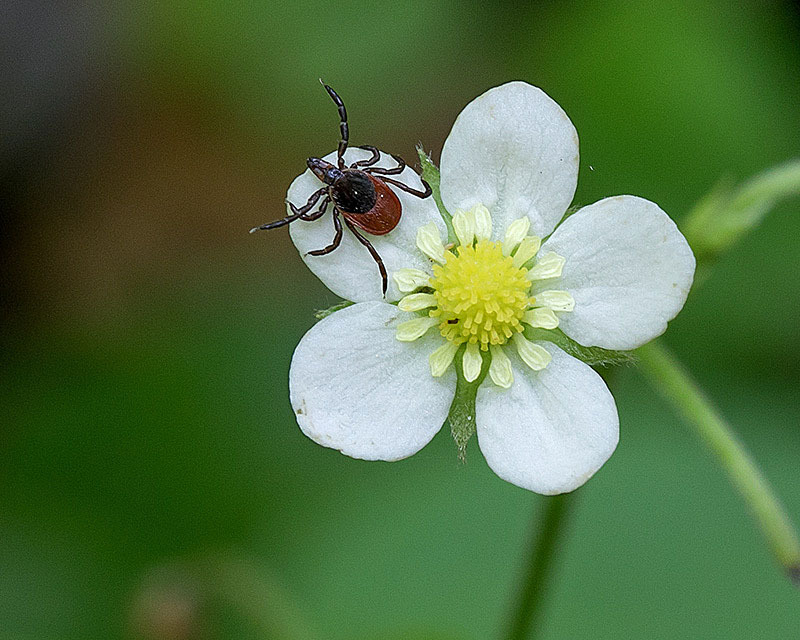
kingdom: Animalia
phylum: Arthropoda
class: Arachnida
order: Ixodida
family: Ixodidae
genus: Ixodes
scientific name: Ixodes scapularis
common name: Black legged tick
